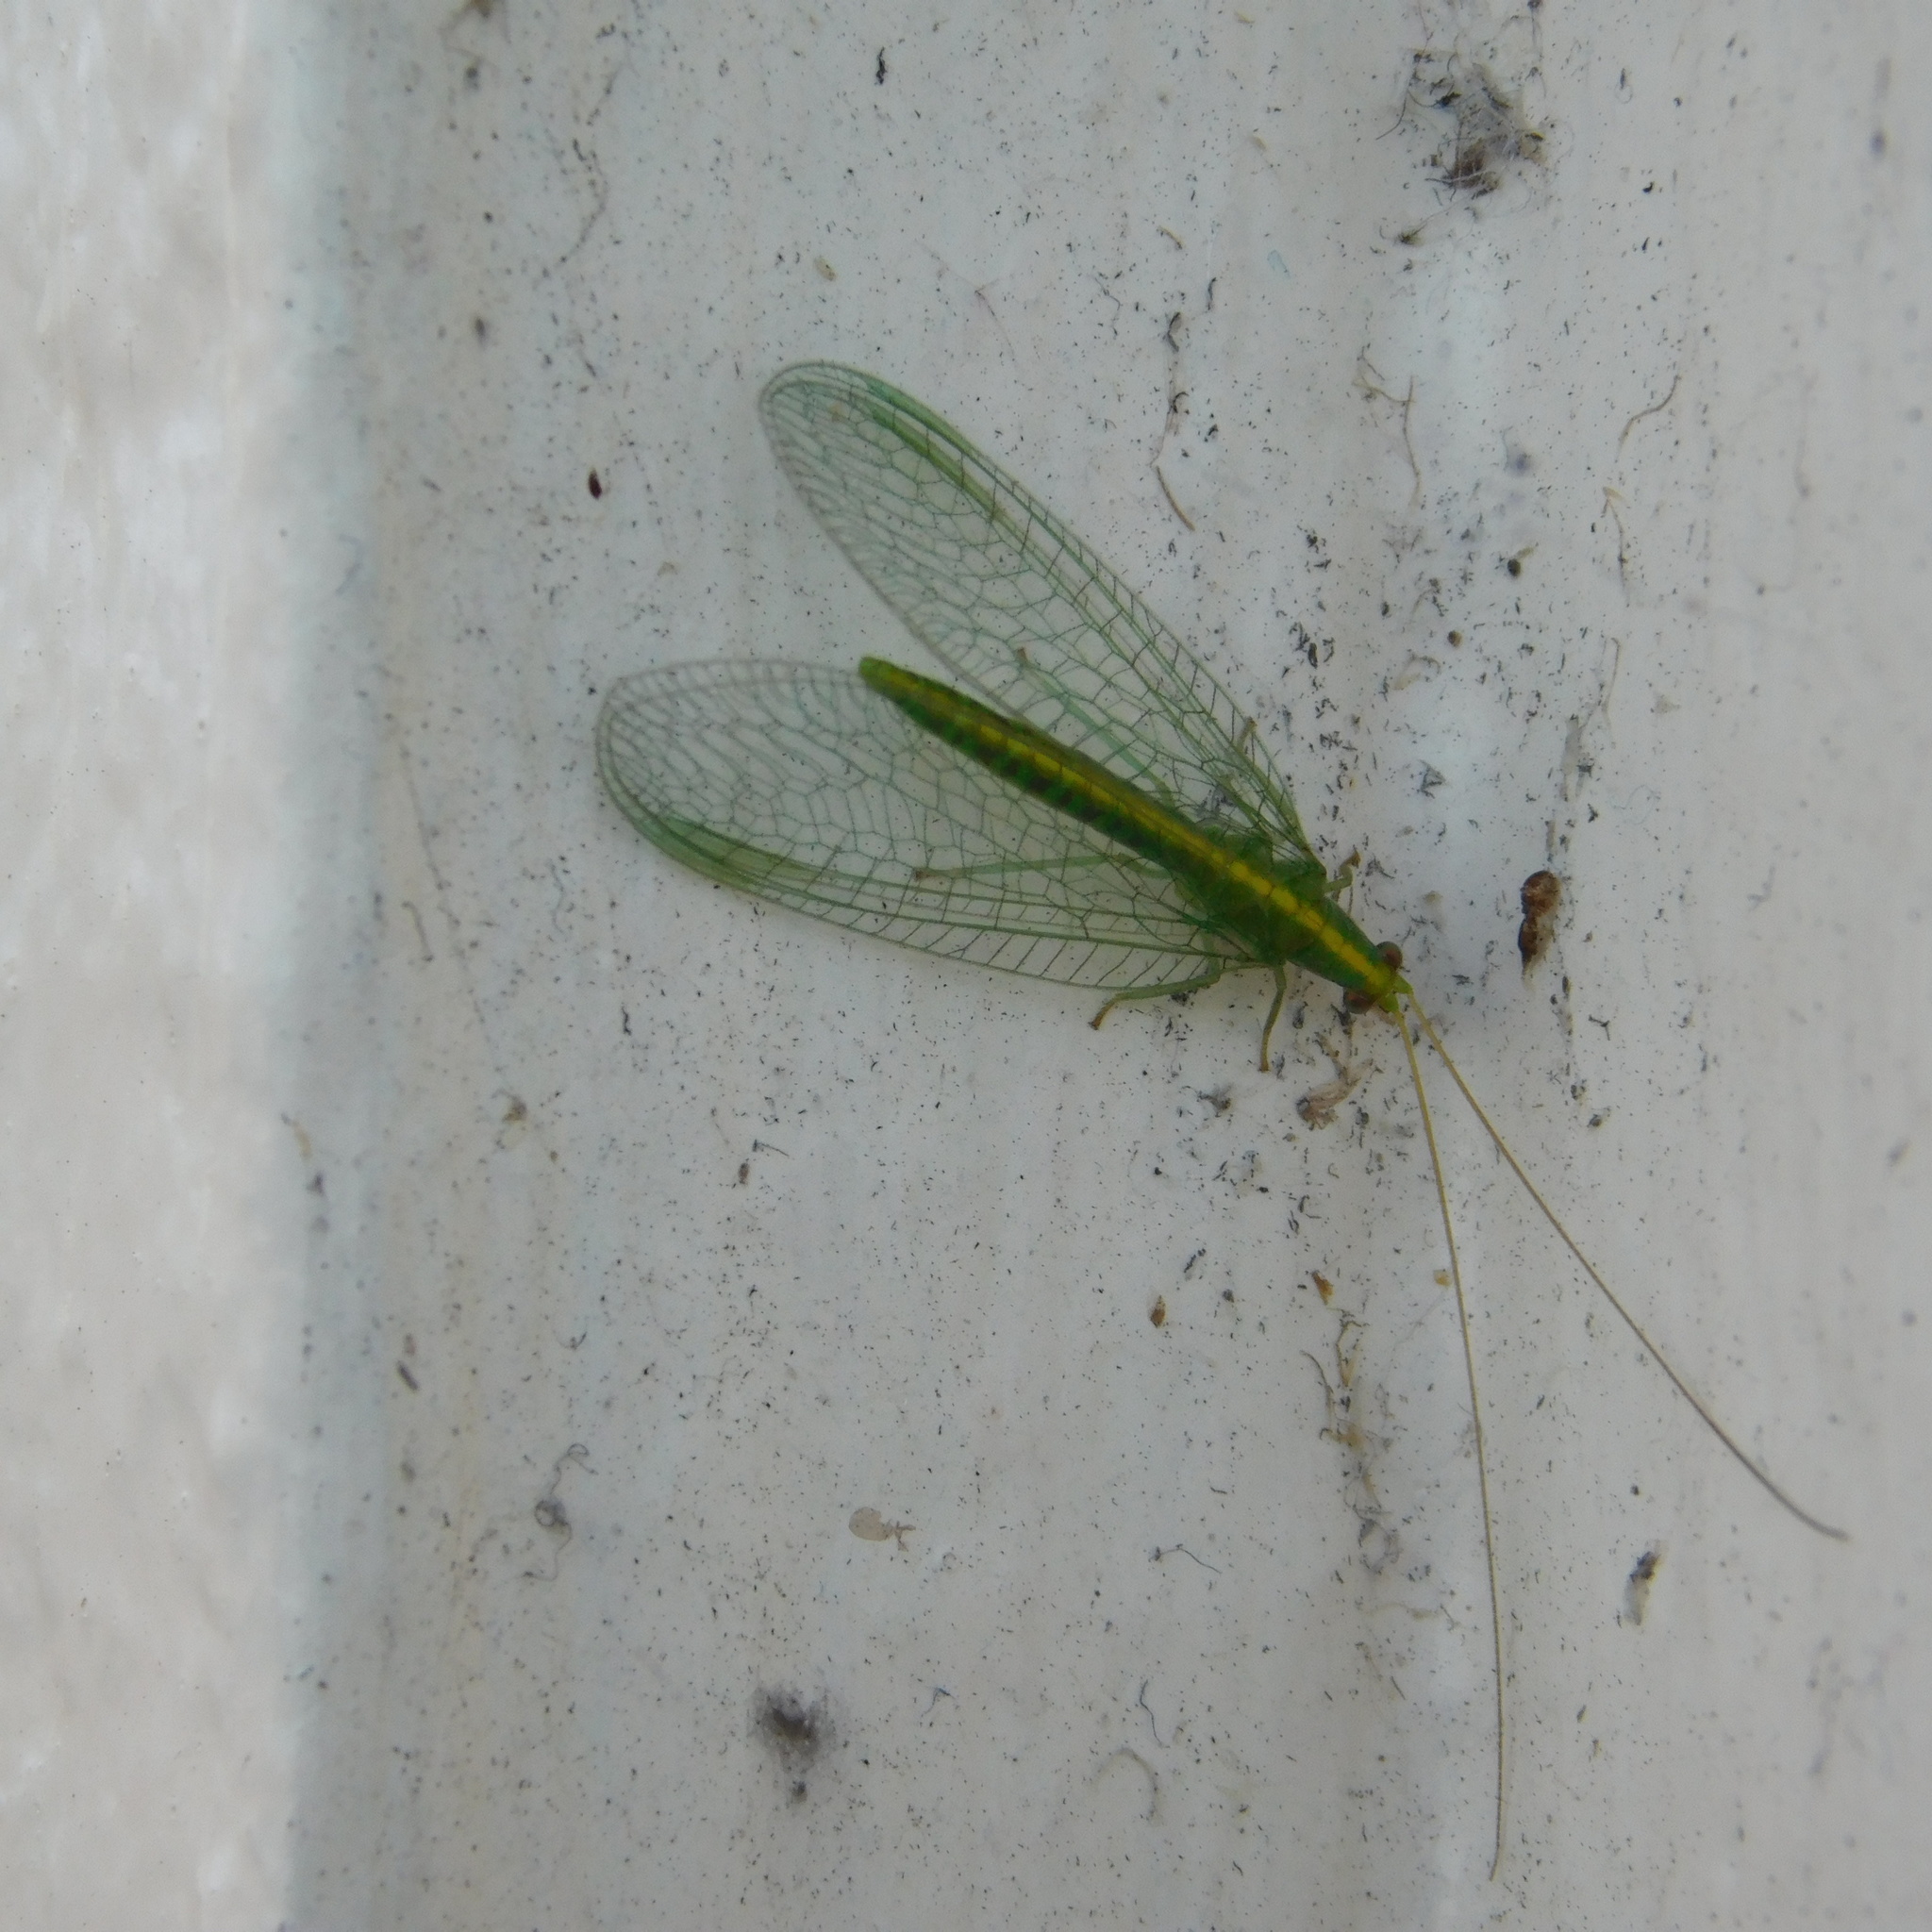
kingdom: Animalia
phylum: Arthropoda
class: Insecta
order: Neuroptera
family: Chrysopidae
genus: Mallada
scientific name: Mallada basalis
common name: Green lacewing
